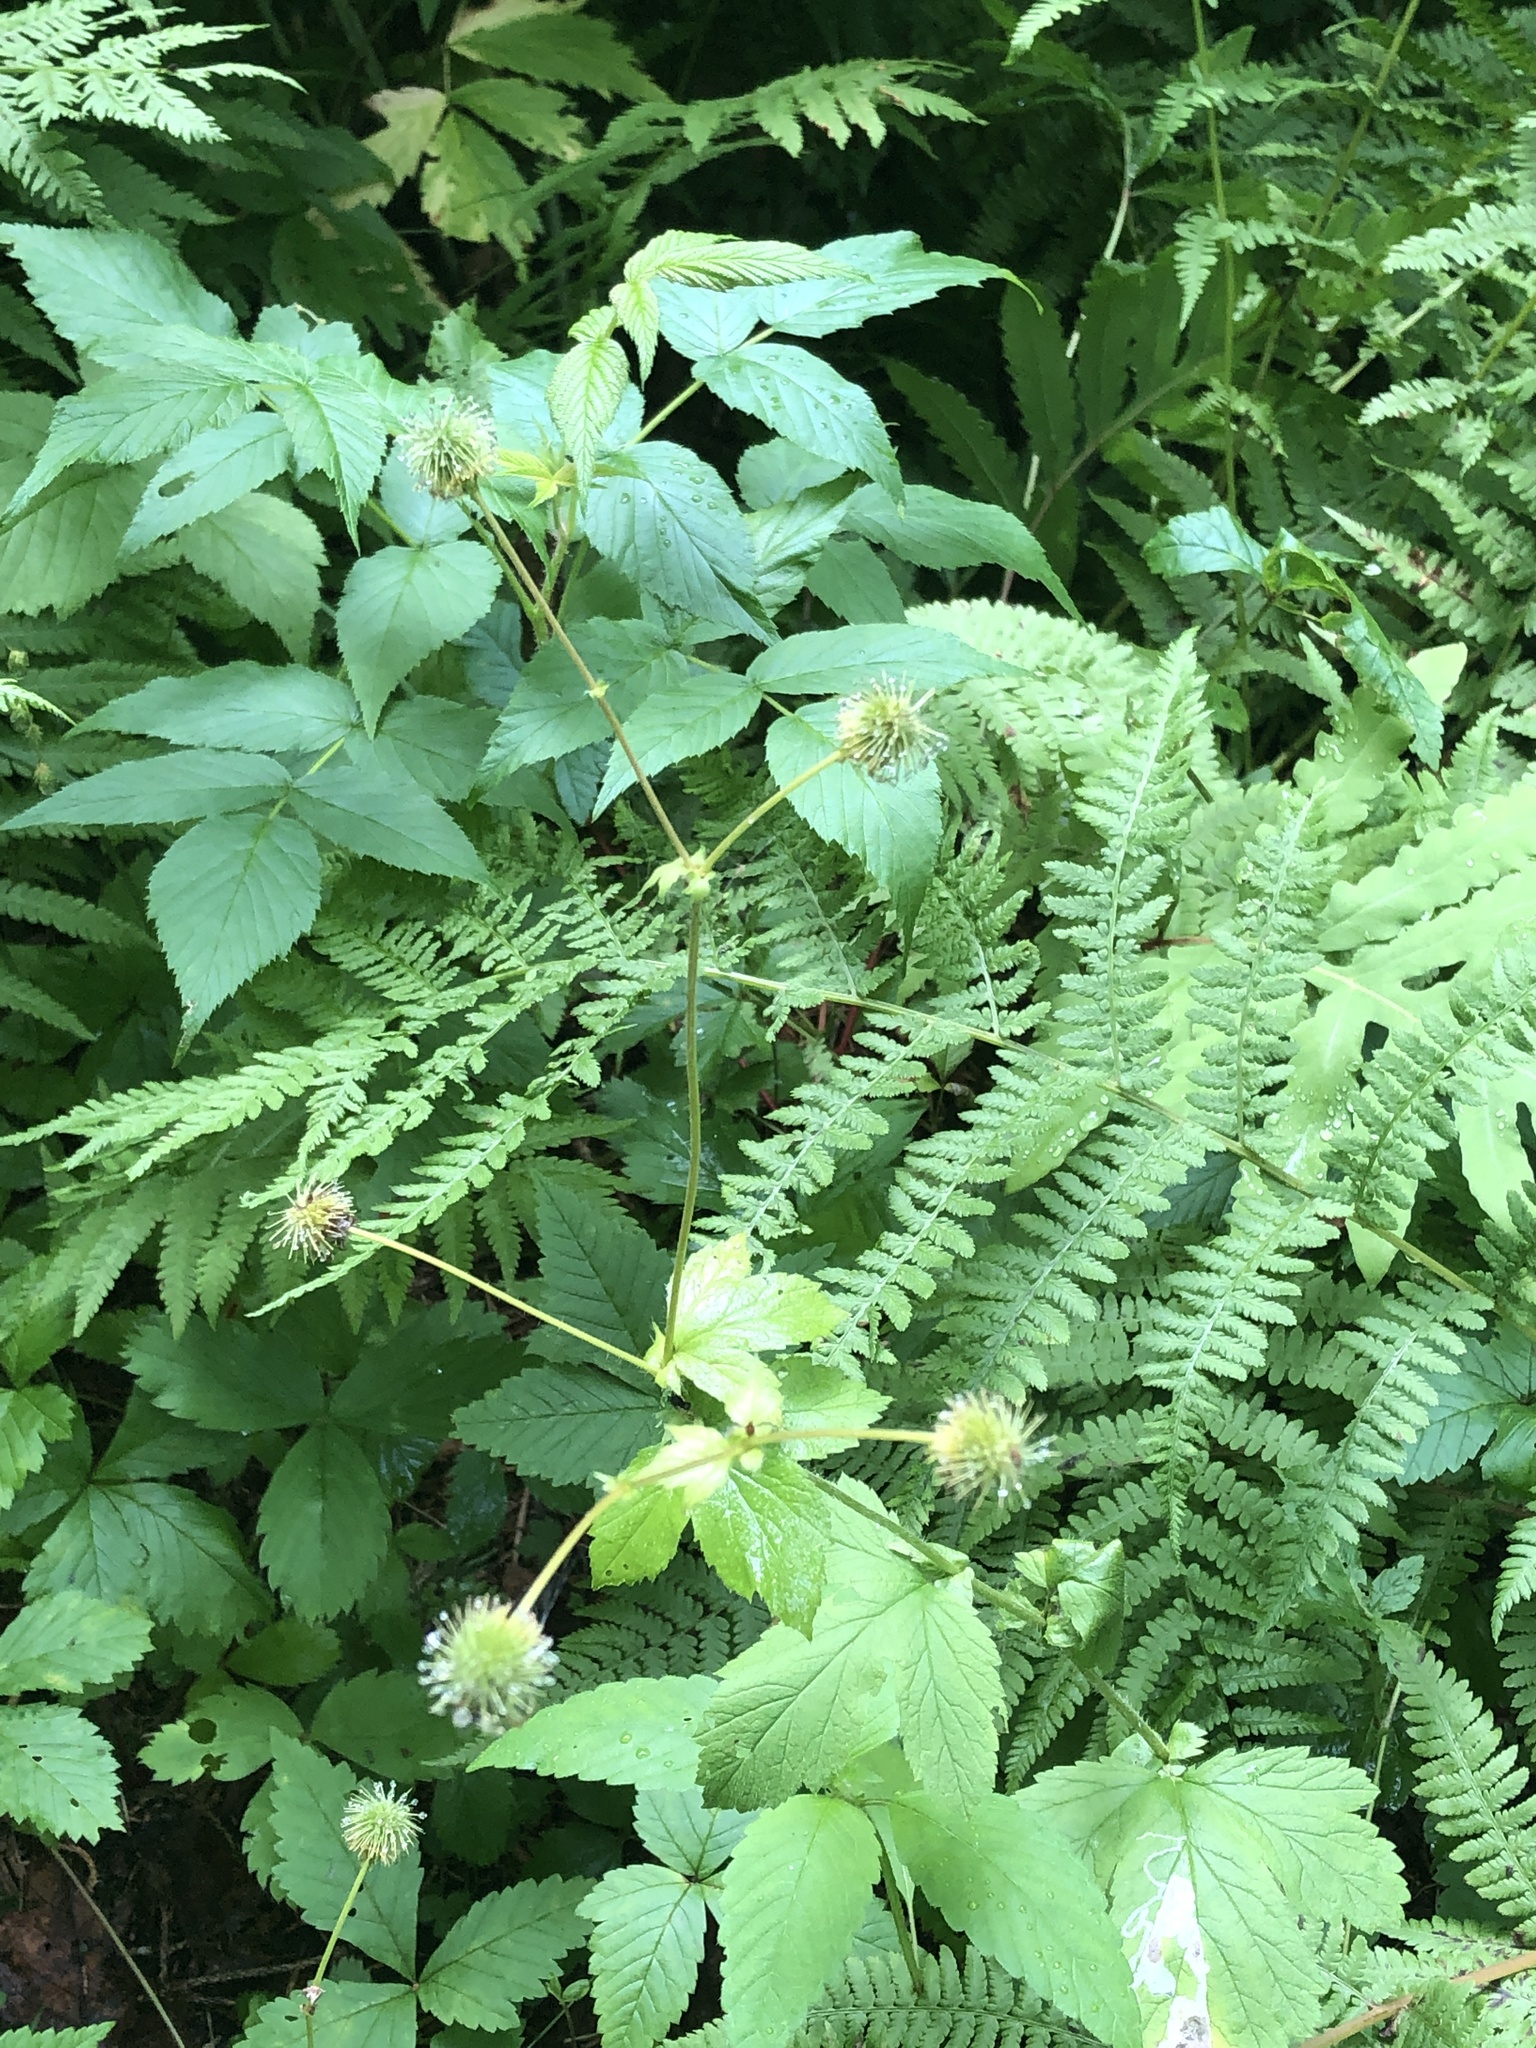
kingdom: Plantae
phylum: Tracheophyta
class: Magnoliopsida
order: Rosales
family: Rosaceae
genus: Geum
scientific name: Geum macrophyllum
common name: Large-leaved avens
